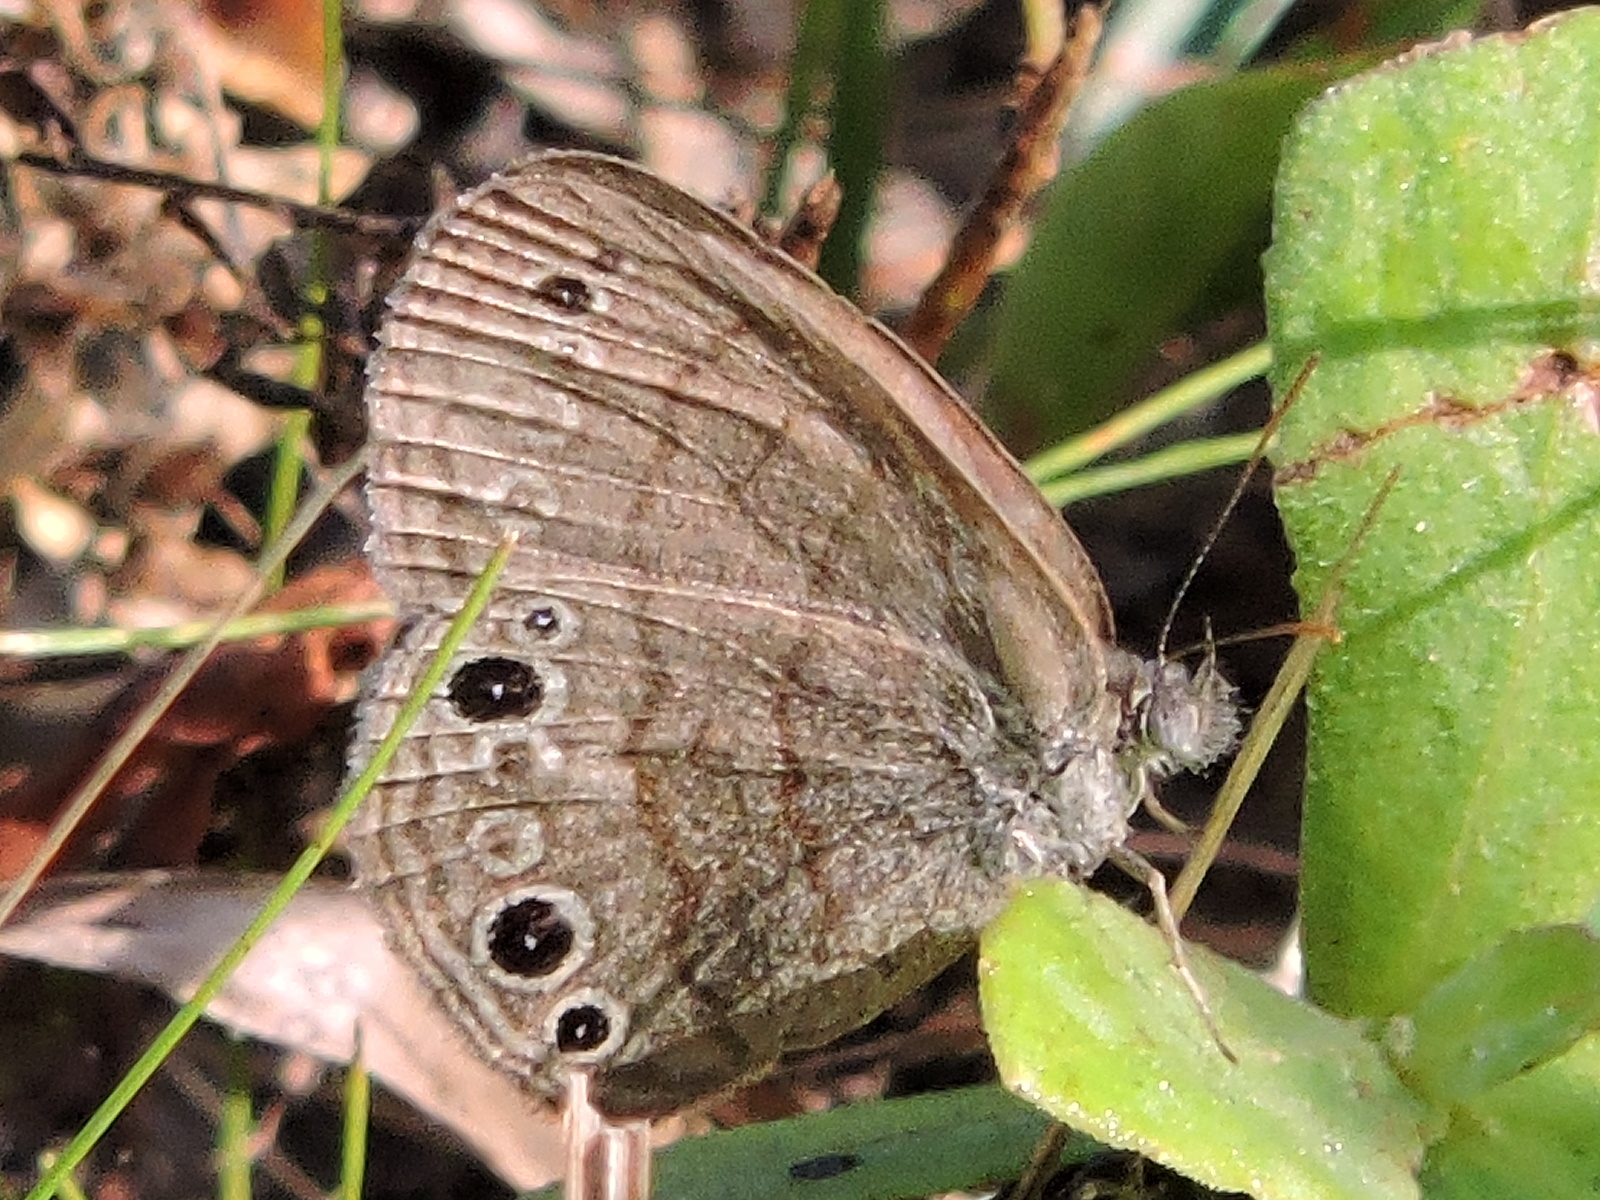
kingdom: Animalia
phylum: Arthropoda
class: Insecta
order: Lepidoptera
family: Nymphalidae
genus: Hermeuptychia
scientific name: Hermeuptychia hermes
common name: Hermes satyr
